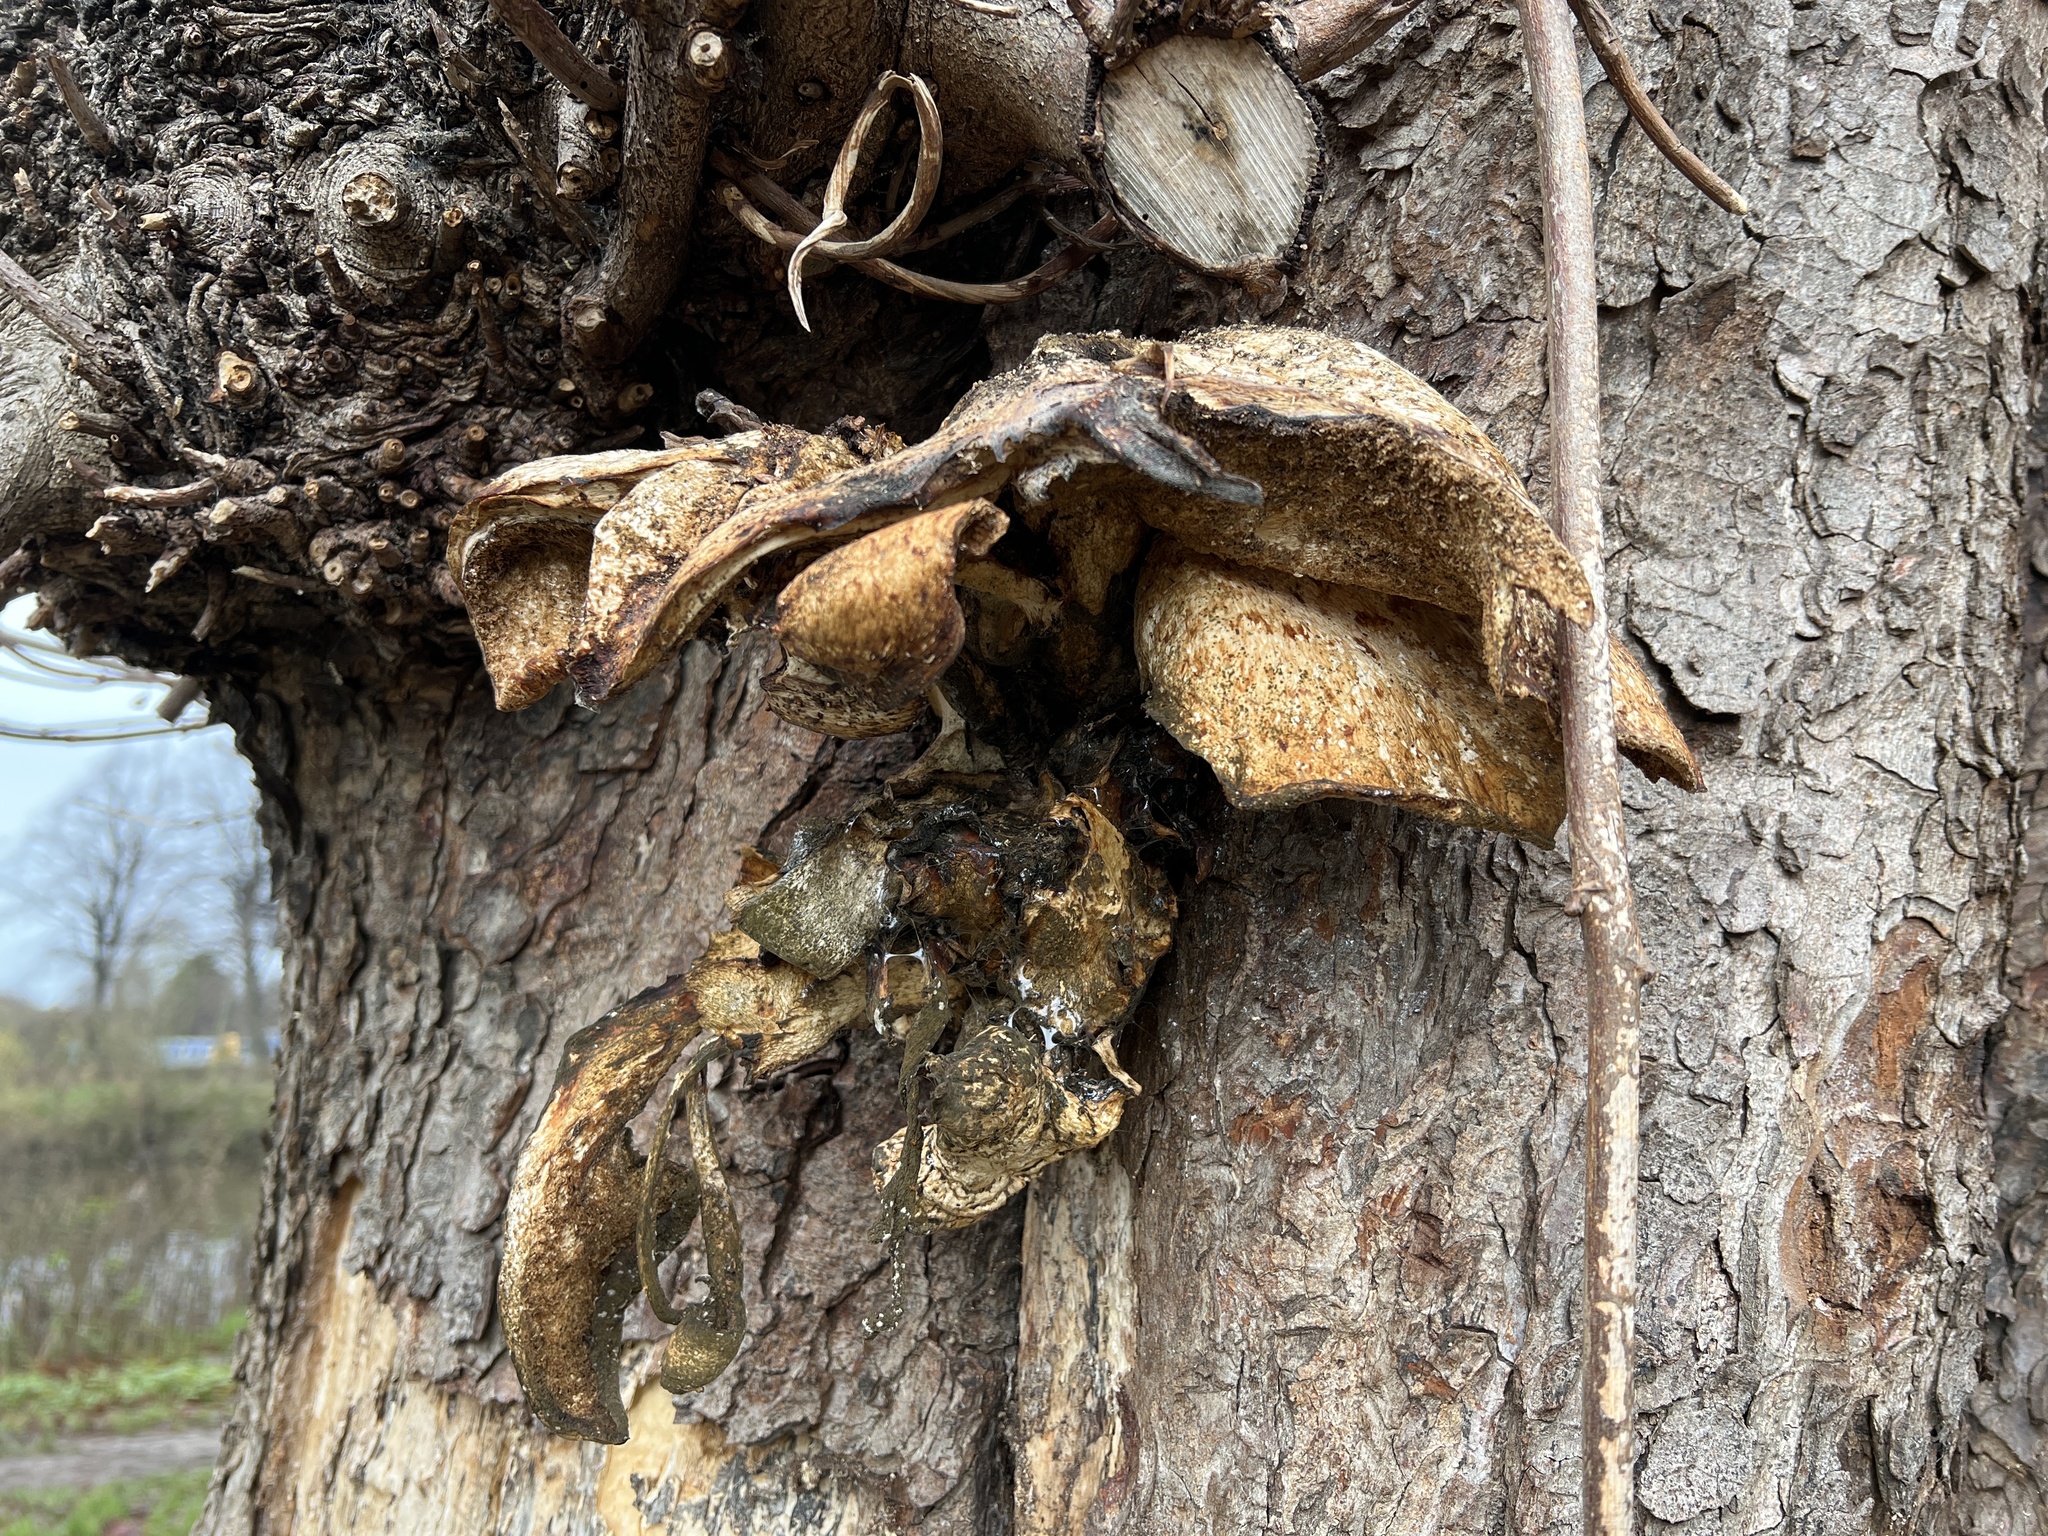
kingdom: Fungi
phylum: Basidiomycota
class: Agaricomycetes
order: Polyporales
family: Polyporaceae
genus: Cerioporus
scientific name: Cerioporus squamosus
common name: Dryad's saddle
